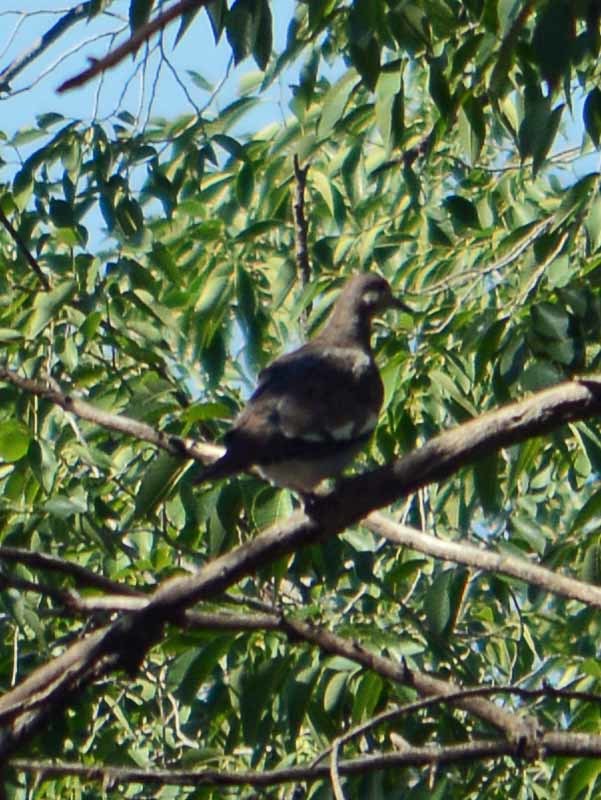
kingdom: Animalia
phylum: Chordata
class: Aves
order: Columbiformes
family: Columbidae
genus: Zenaida
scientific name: Zenaida asiatica
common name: White-winged dove
